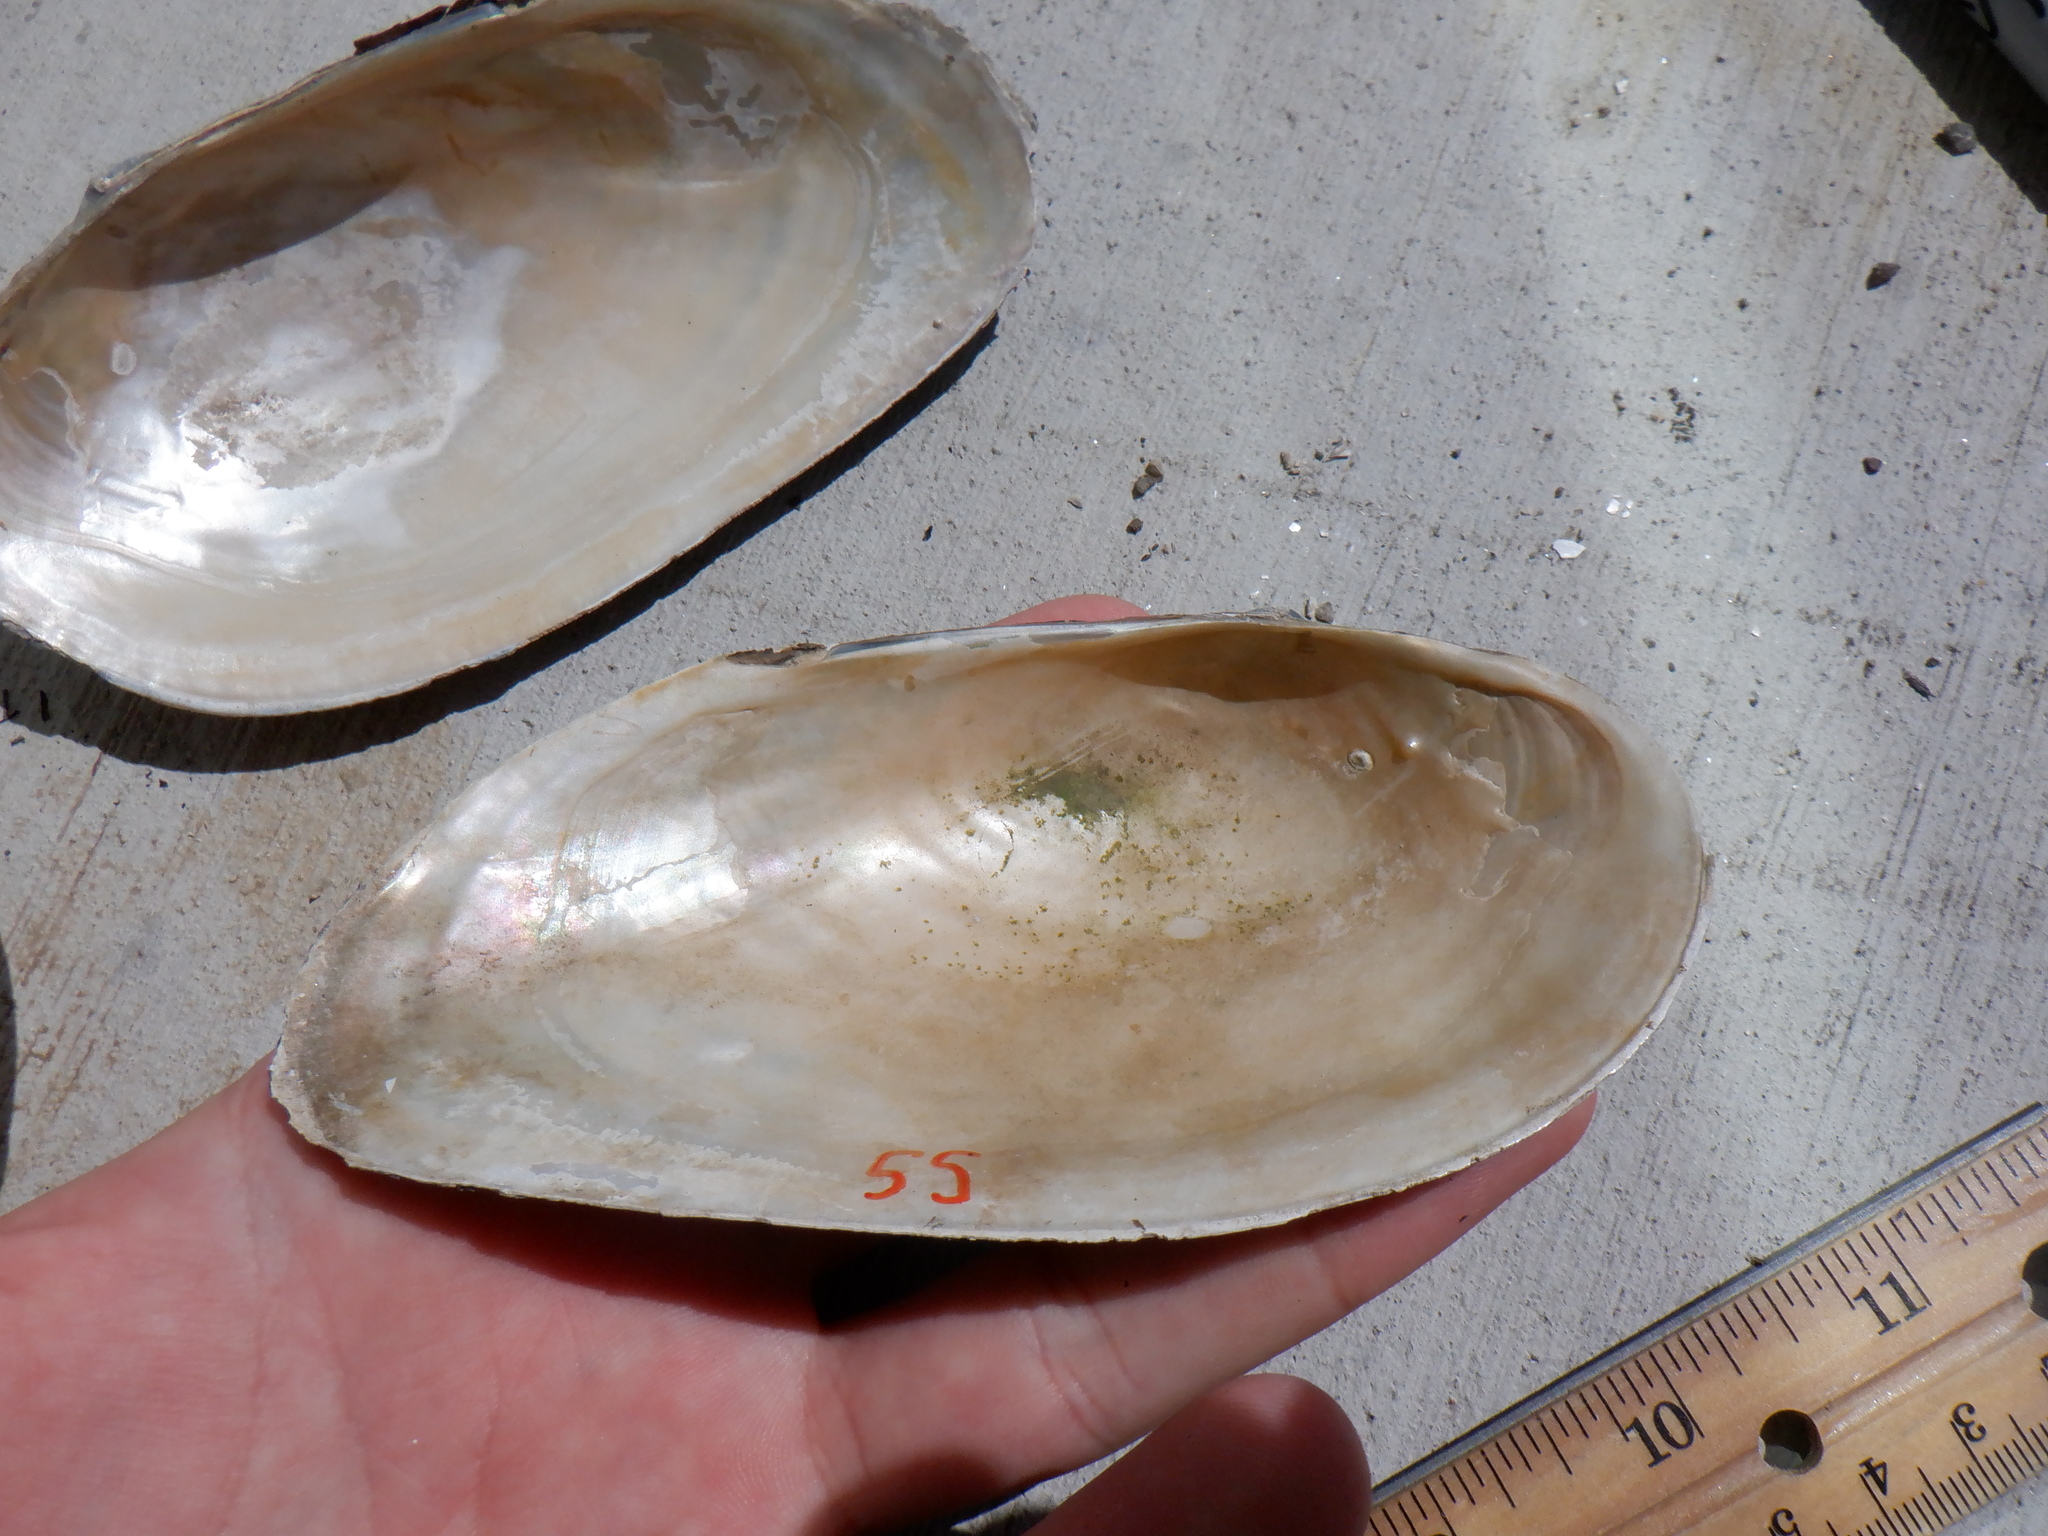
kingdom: Animalia
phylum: Mollusca
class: Bivalvia
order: Unionida
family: Unionidae
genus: Pyganodon
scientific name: Pyganodon grandis
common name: Giant floater
